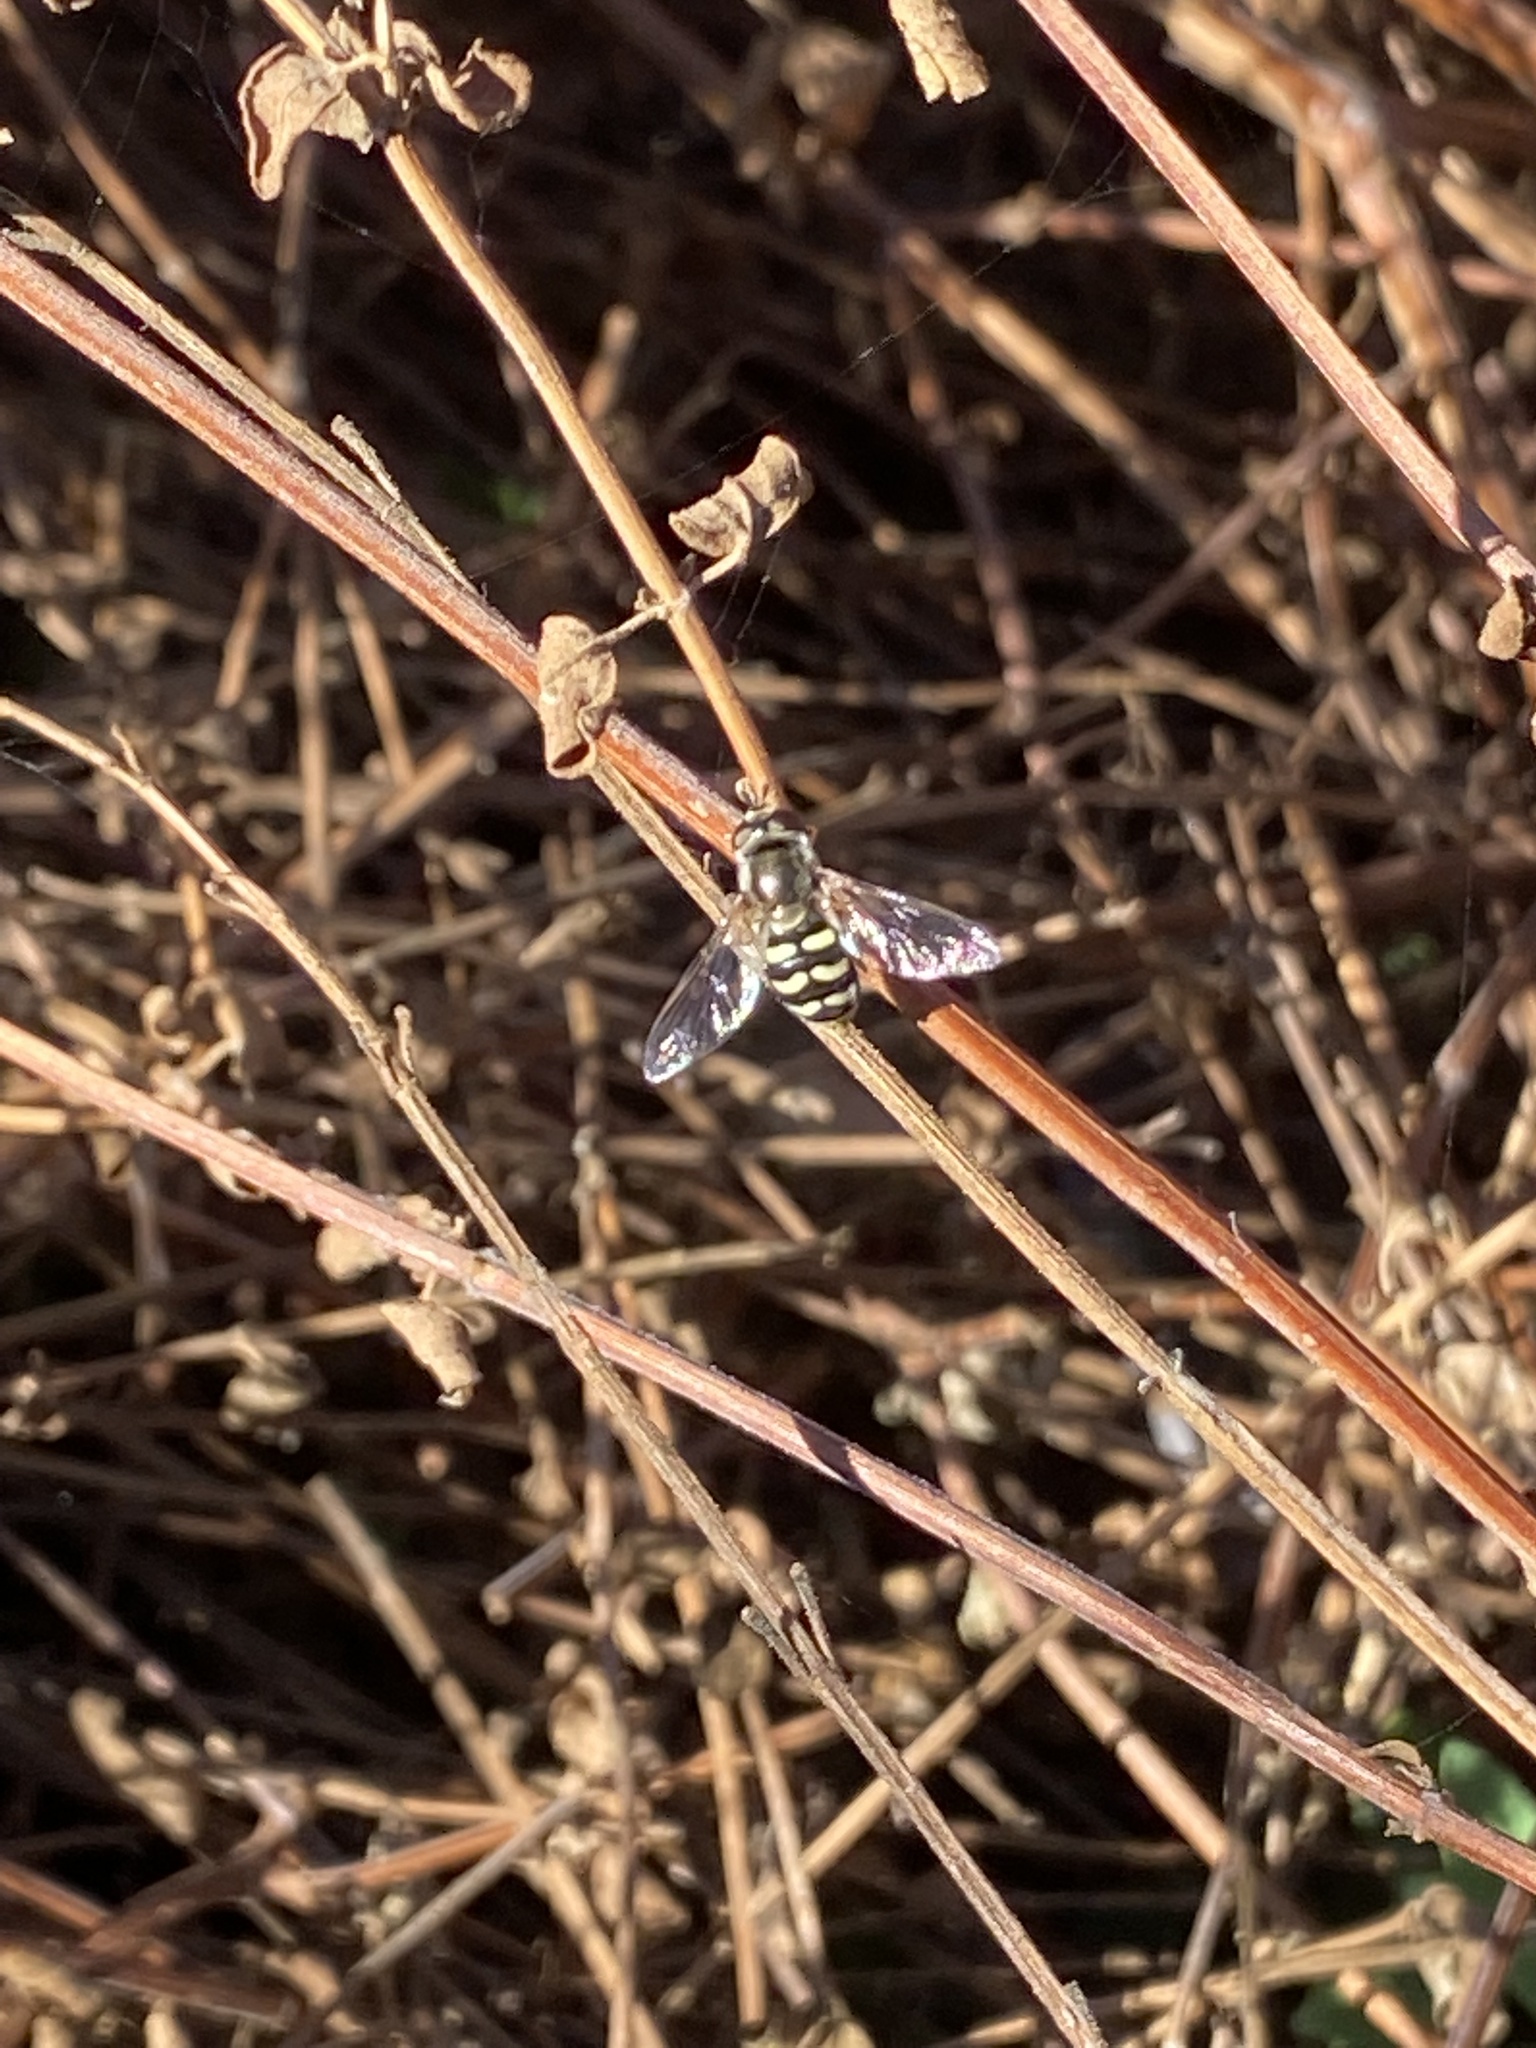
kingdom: Animalia
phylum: Arthropoda
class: Insecta
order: Diptera
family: Syrphidae
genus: Eupeodes
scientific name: Eupeodes volucris
